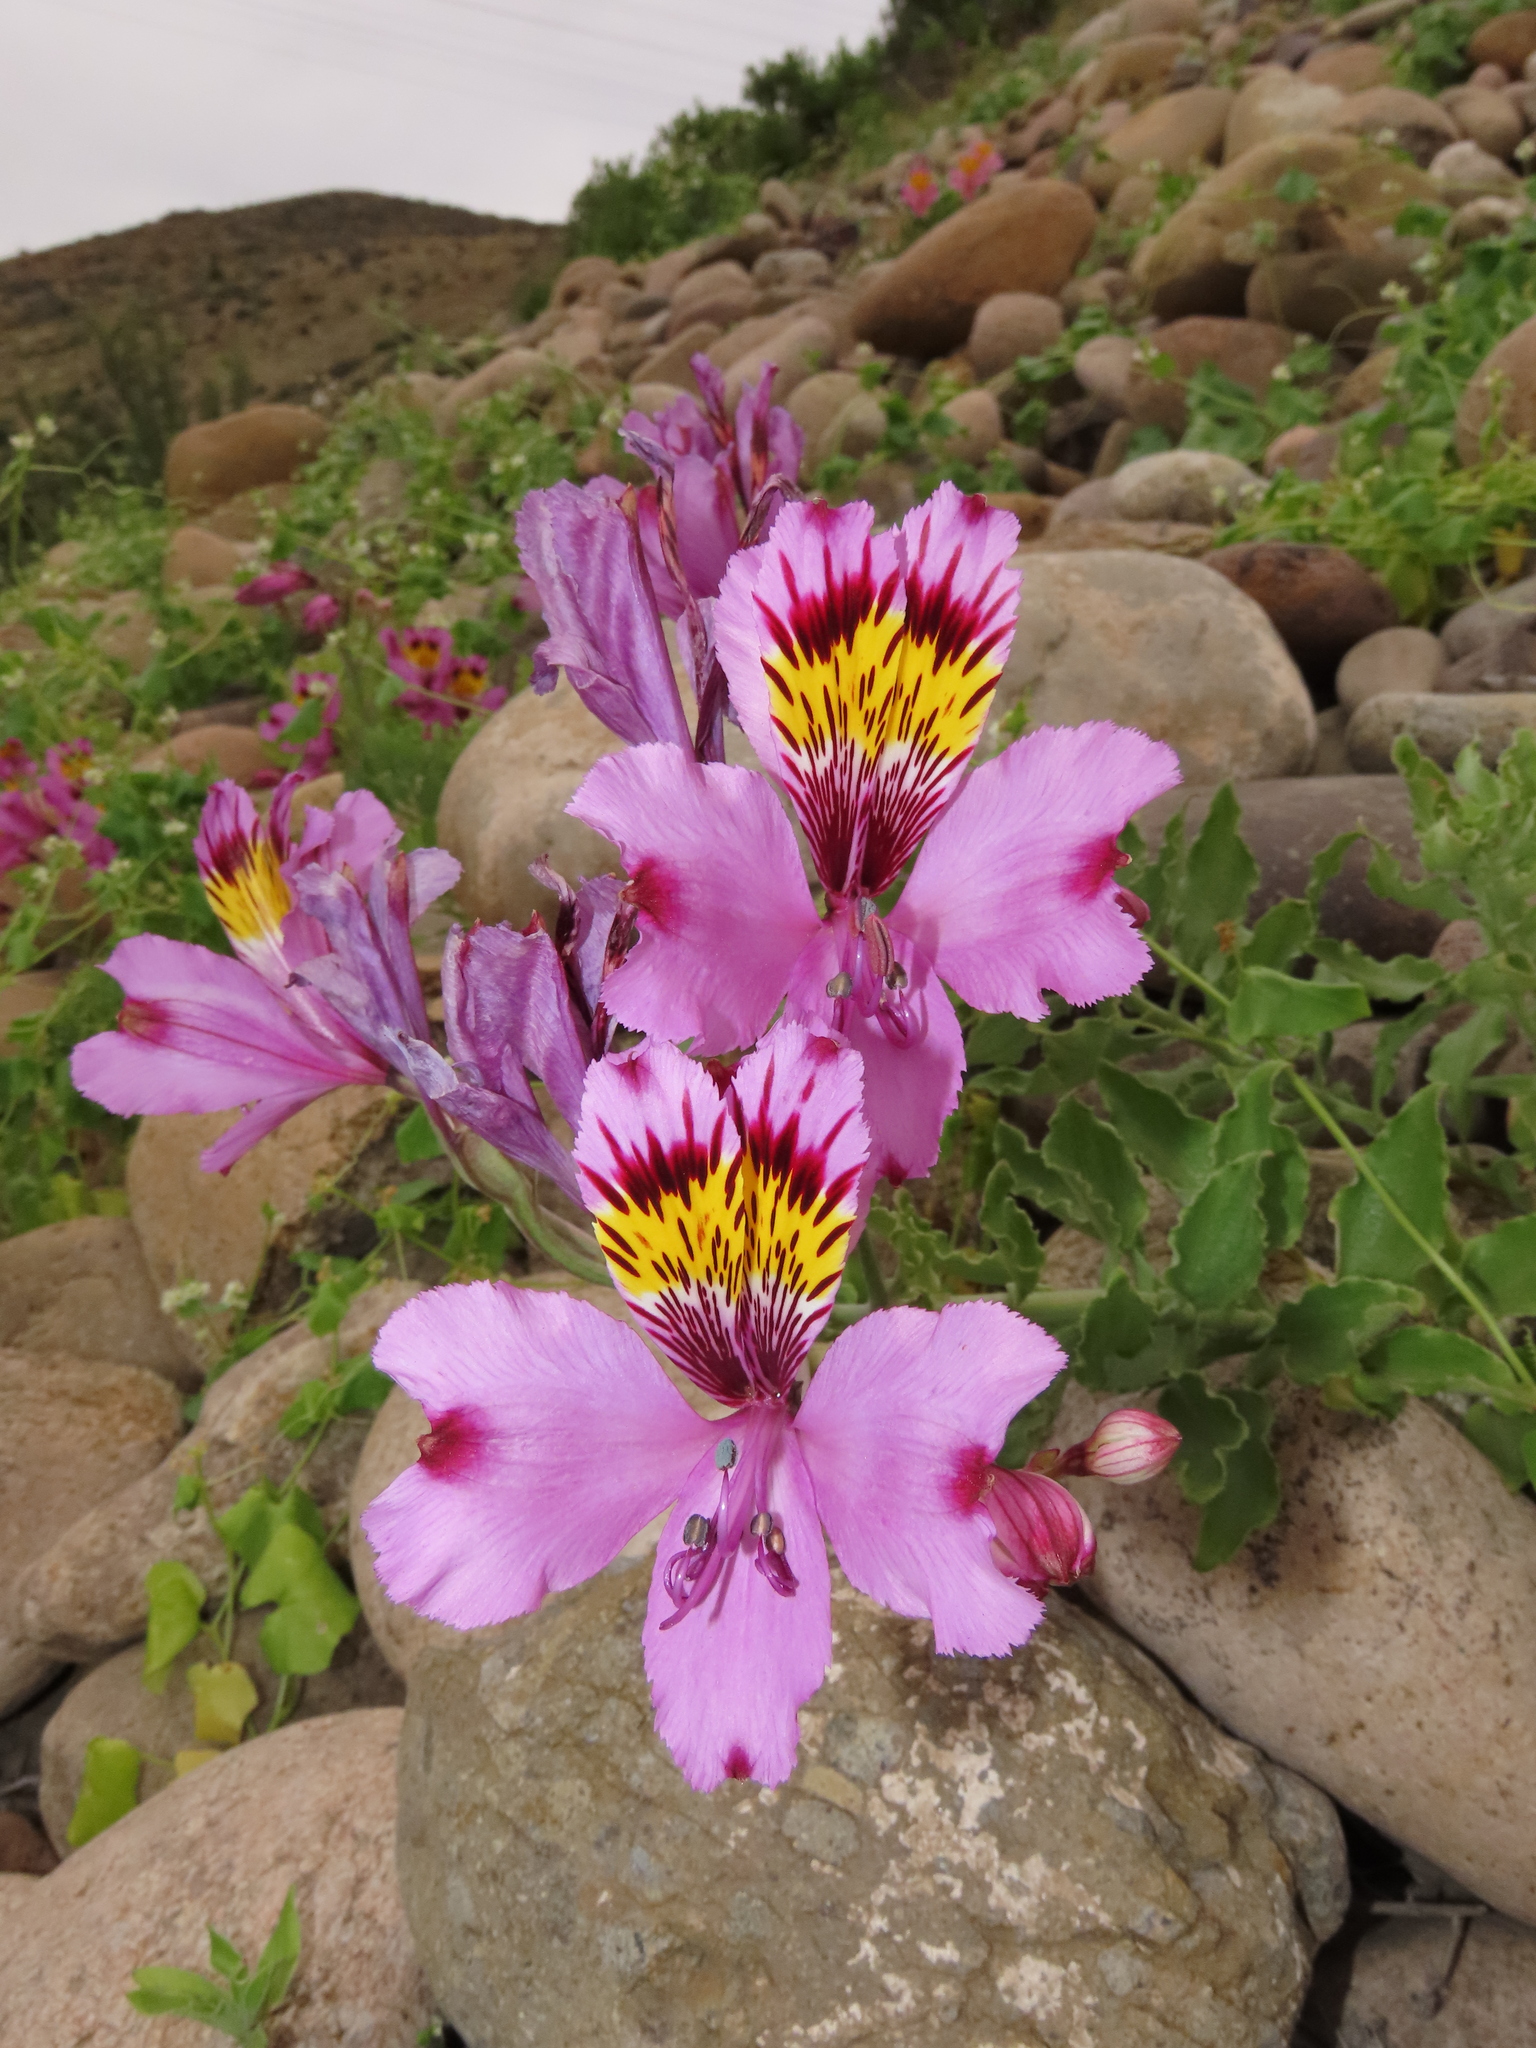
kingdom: Plantae
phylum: Tracheophyta
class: Liliopsida
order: Liliales
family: Alstroemeriaceae
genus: Alstroemeria
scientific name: Alstroemeria philippii
